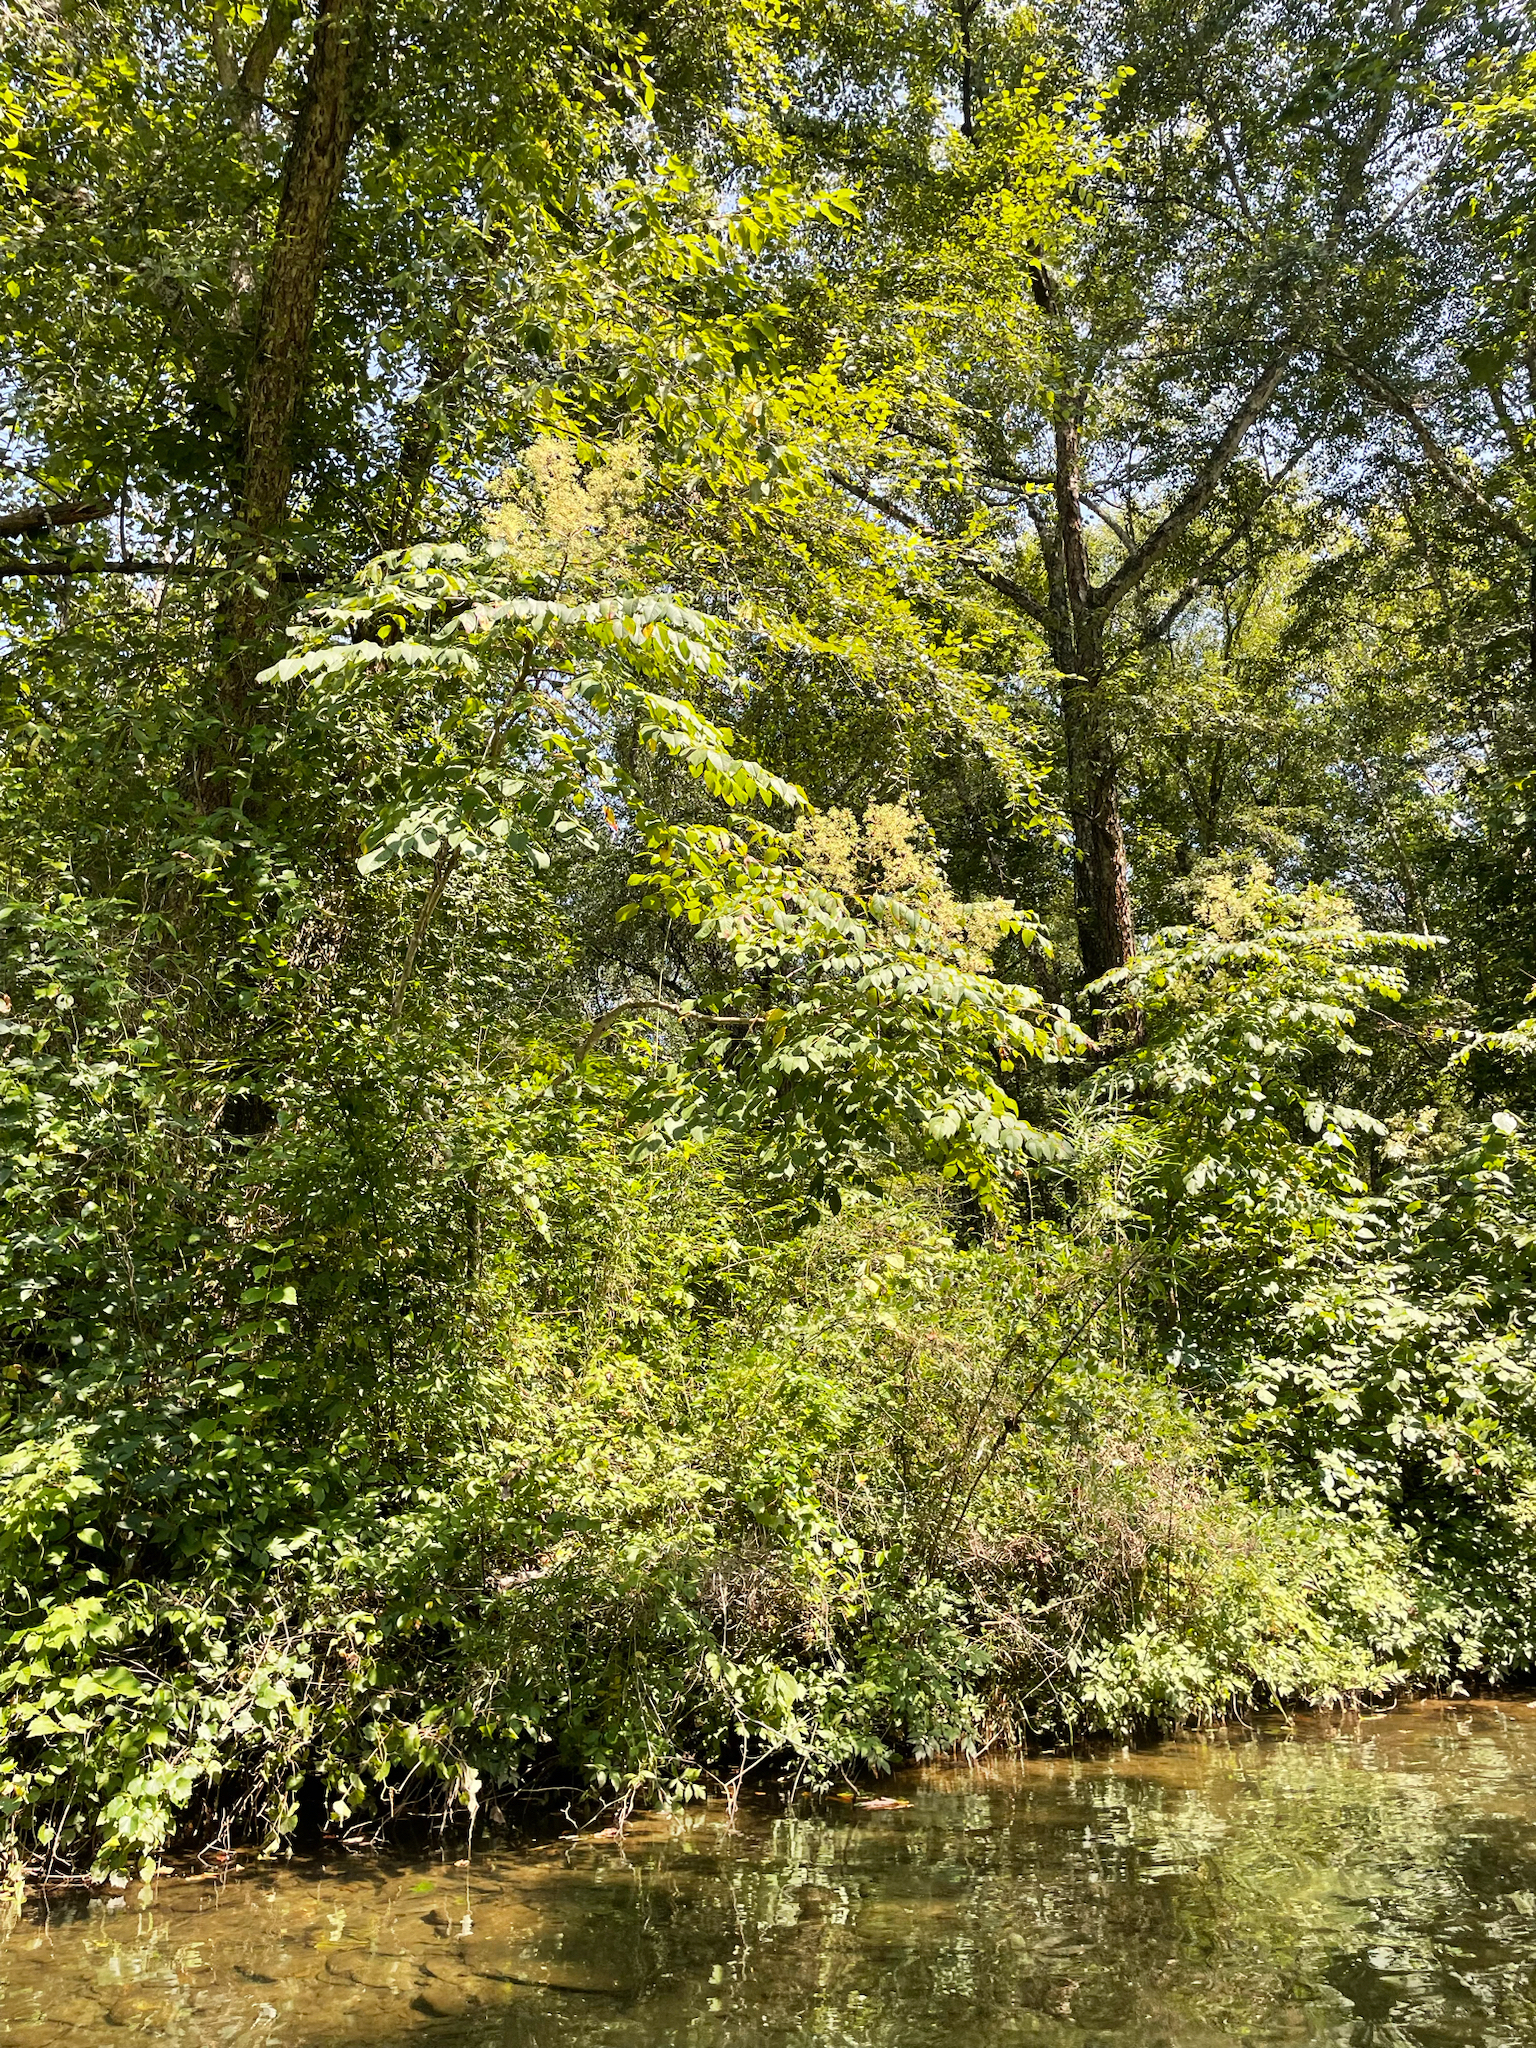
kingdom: Plantae
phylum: Tracheophyta
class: Magnoliopsida
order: Apiales
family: Araliaceae
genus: Aralia
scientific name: Aralia spinosa
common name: Hercules'-club
